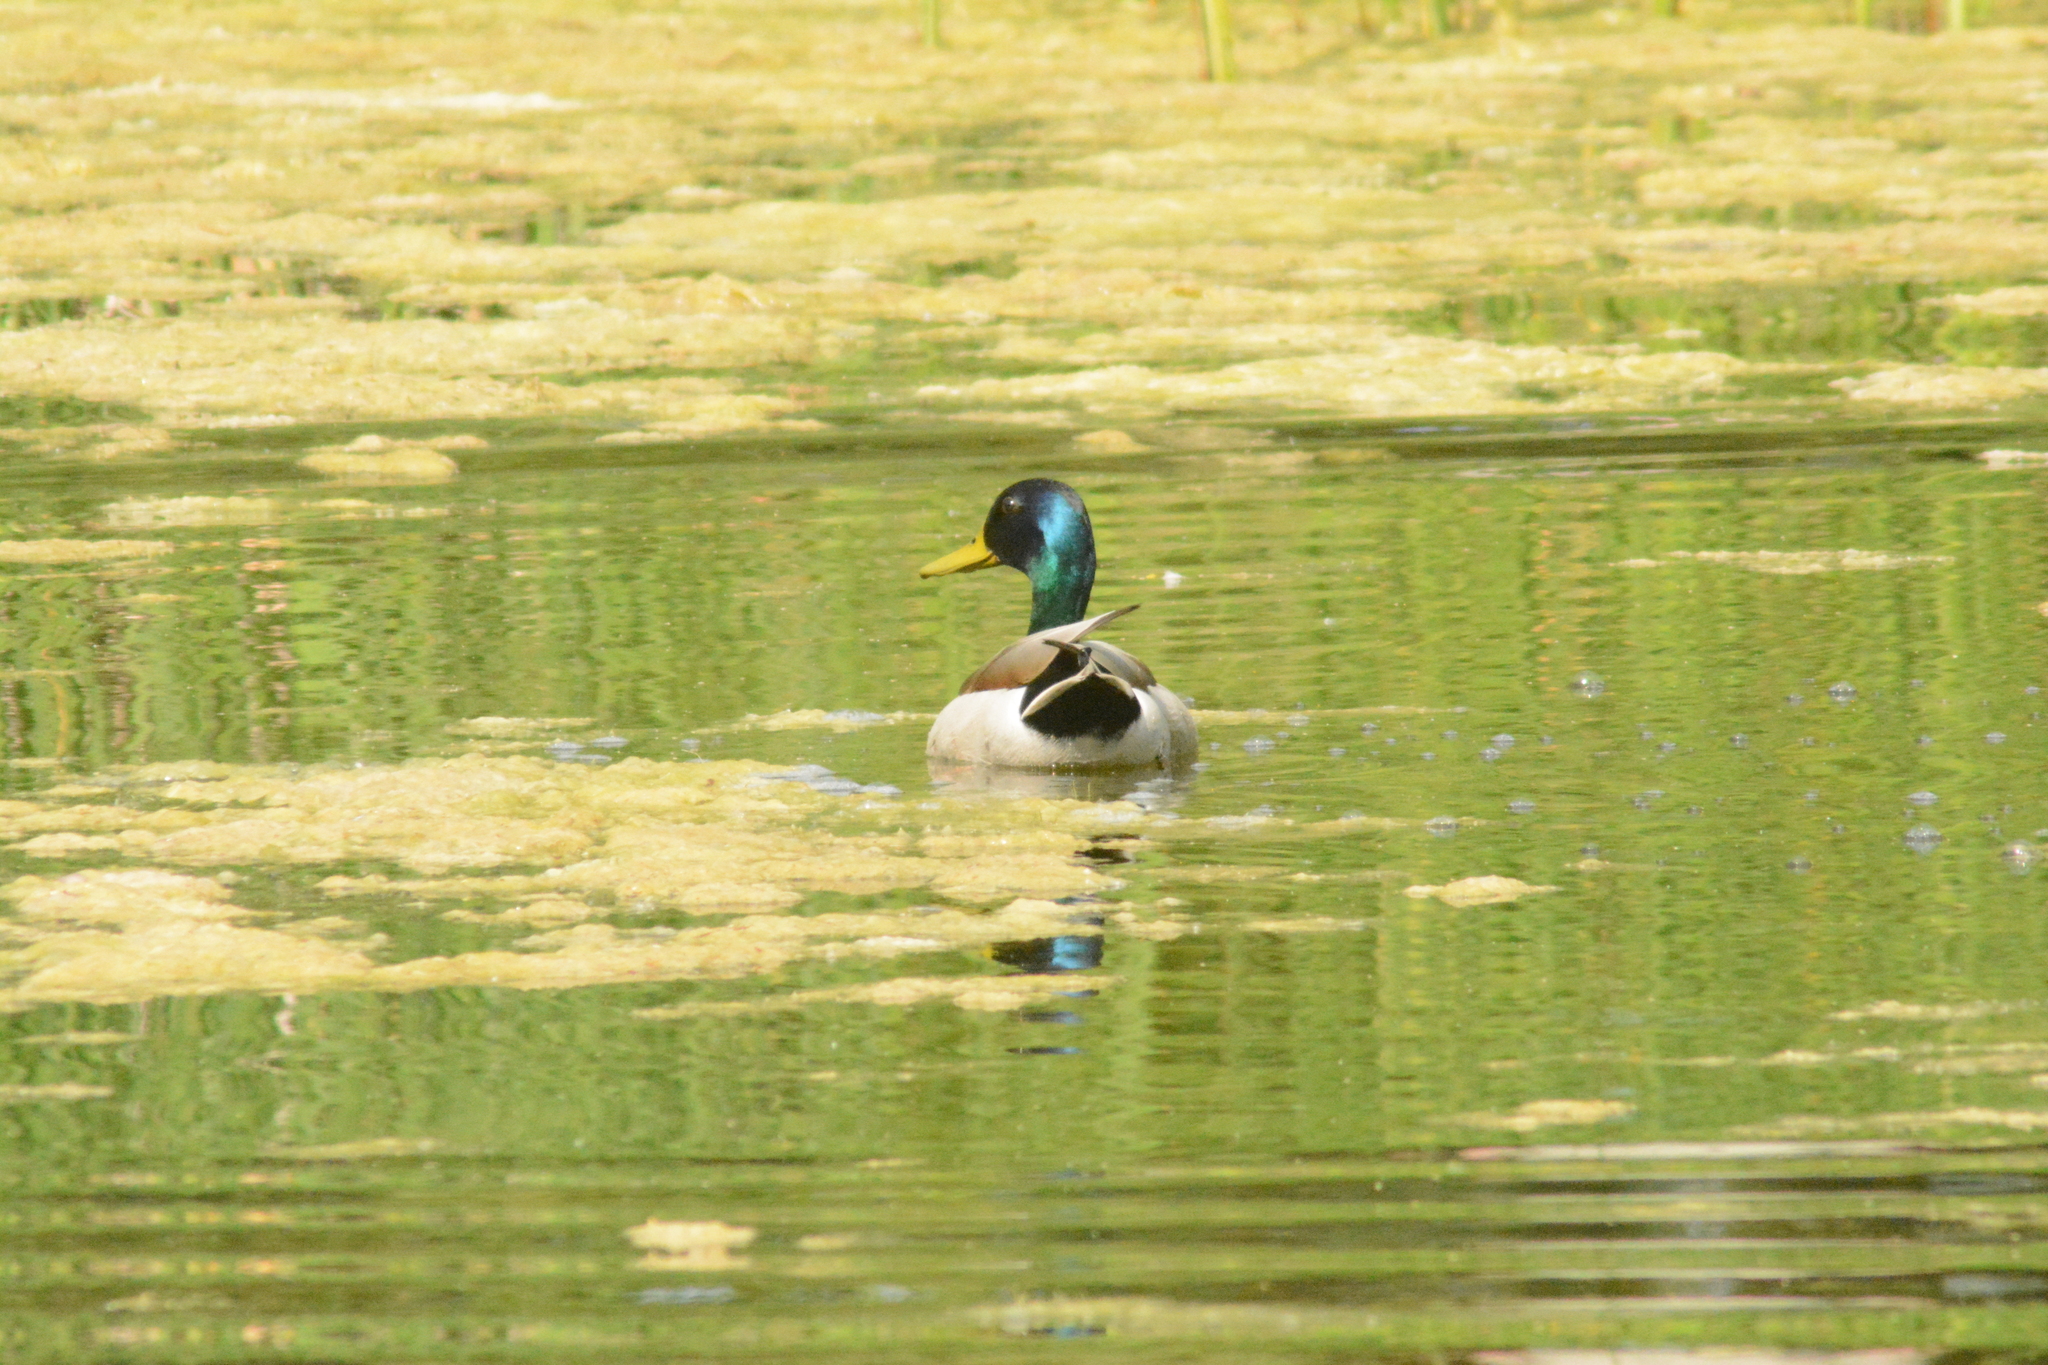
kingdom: Animalia
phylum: Chordata
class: Aves
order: Anseriformes
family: Anatidae
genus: Anas
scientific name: Anas platyrhynchos
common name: Mallard
